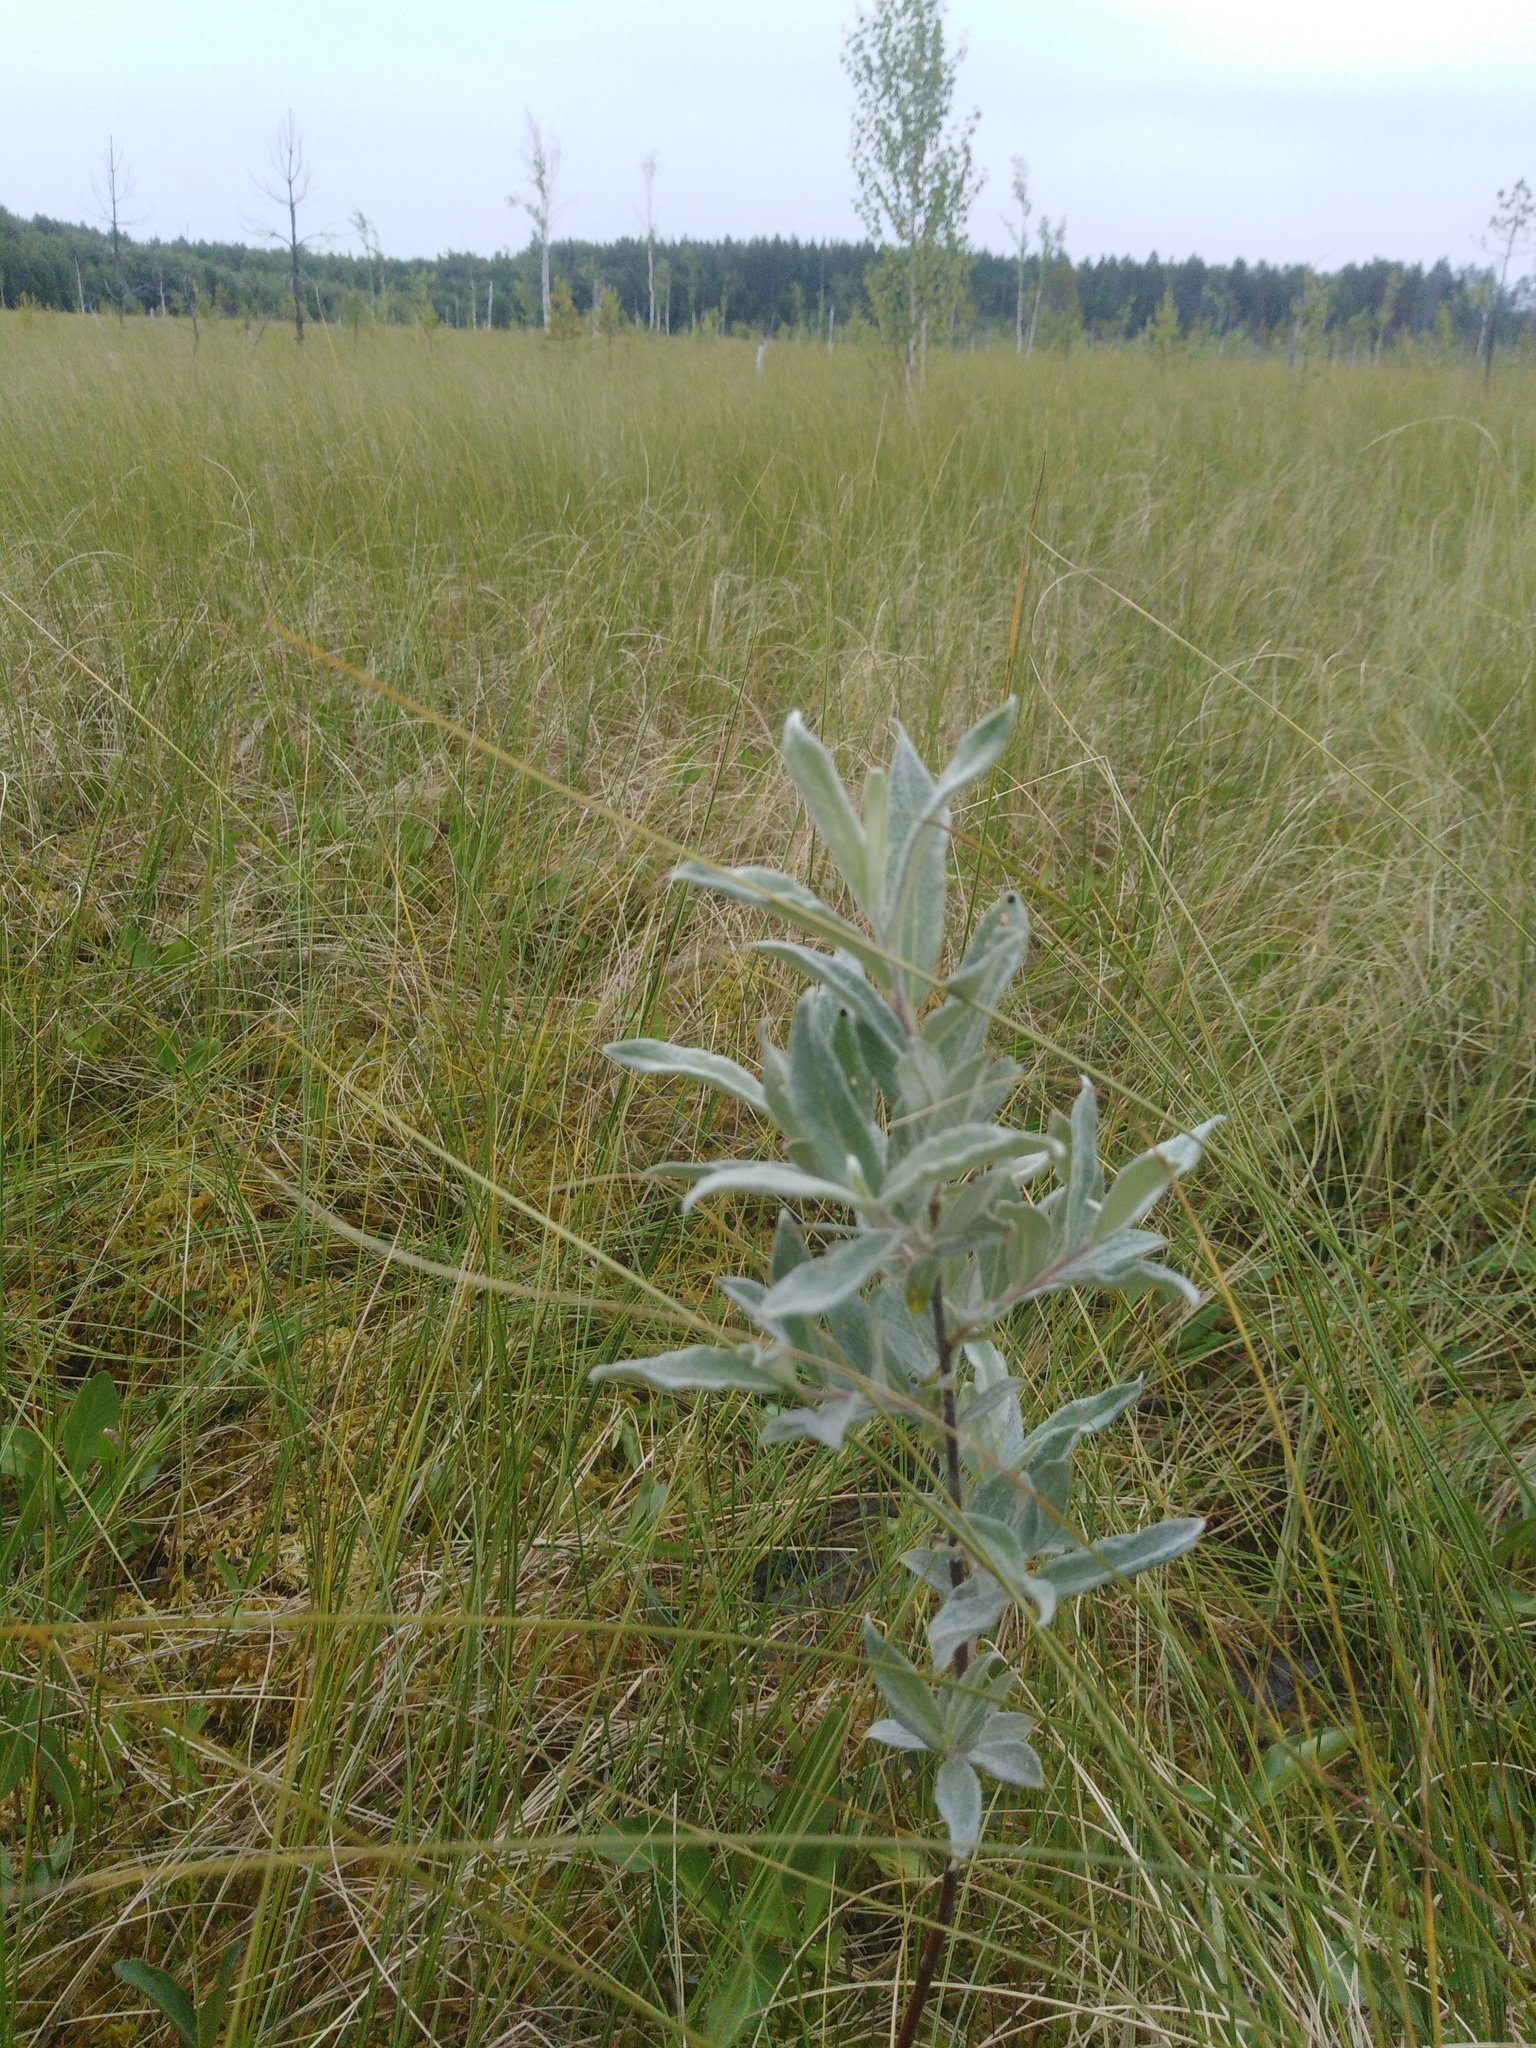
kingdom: Plantae
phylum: Tracheophyta
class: Magnoliopsida
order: Malpighiales
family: Salicaceae
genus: Salix
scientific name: Salix lapponum
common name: Downy willow
